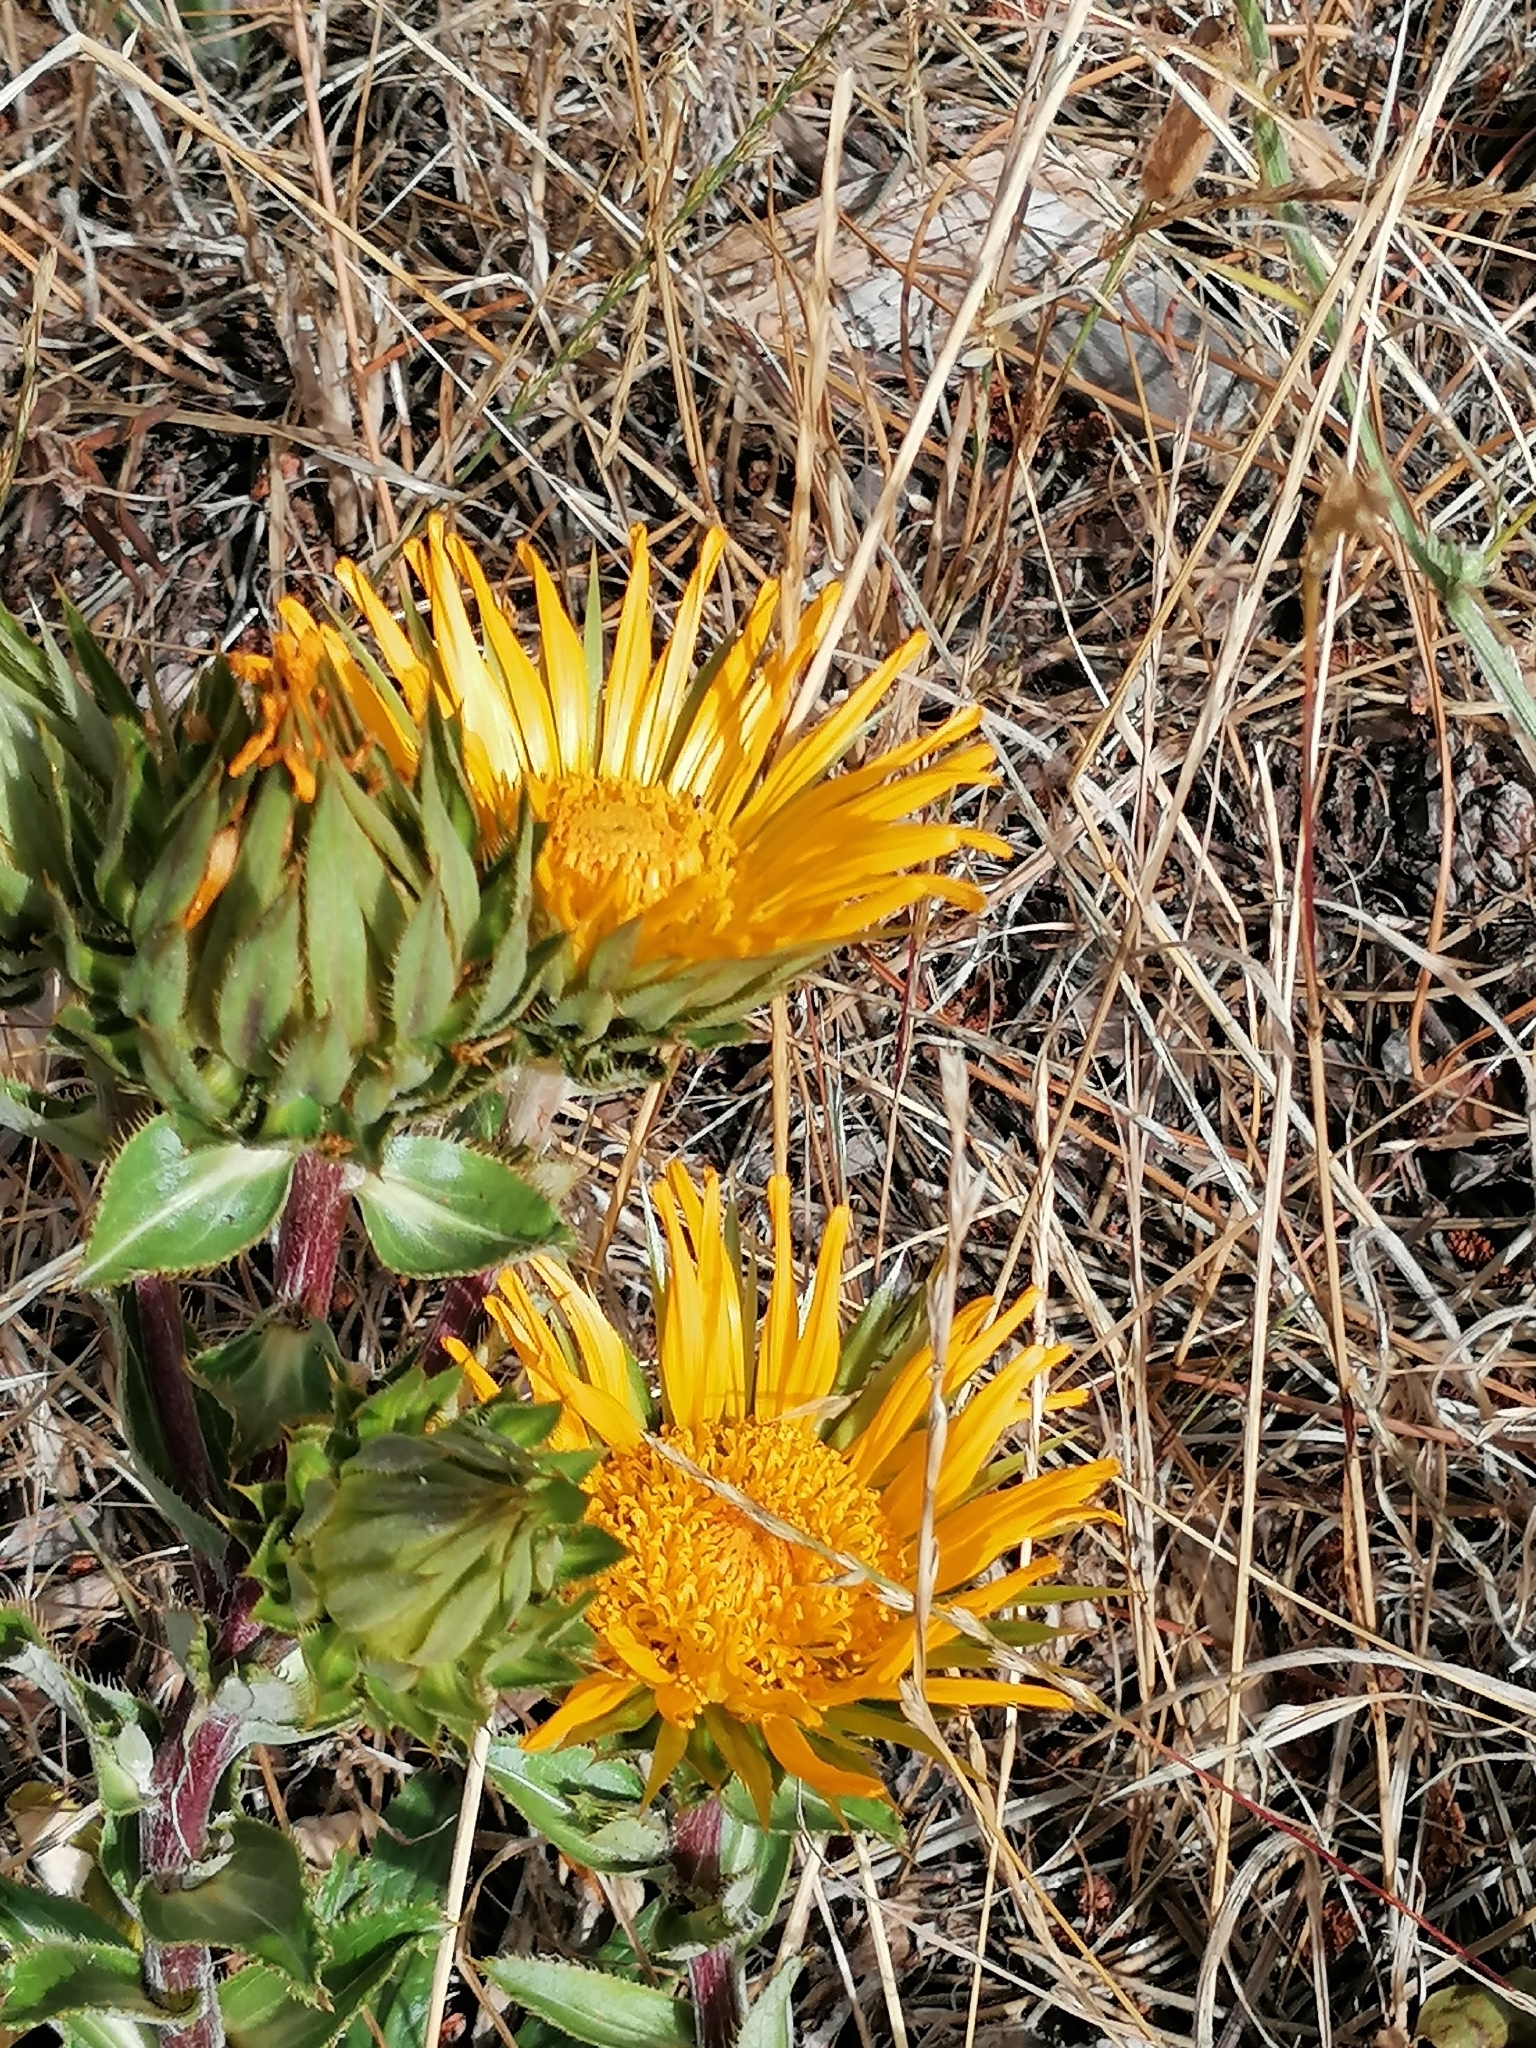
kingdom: Plantae
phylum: Tracheophyta
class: Magnoliopsida
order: Asterales
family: Asteraceae
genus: Berkheya
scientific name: Berkheya armata
